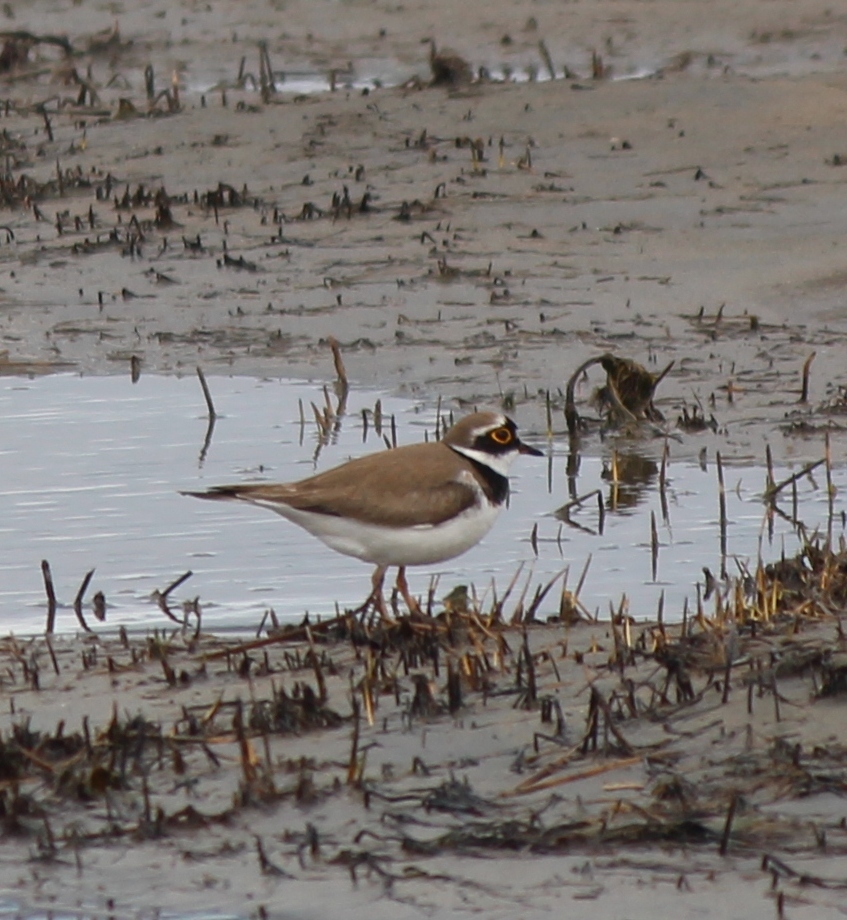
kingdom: Animalia
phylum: Chordata
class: Aves
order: Charadriiformes
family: Charadriidae
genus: Charadrius
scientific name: Charadrius dubius
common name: Little ringed plover
